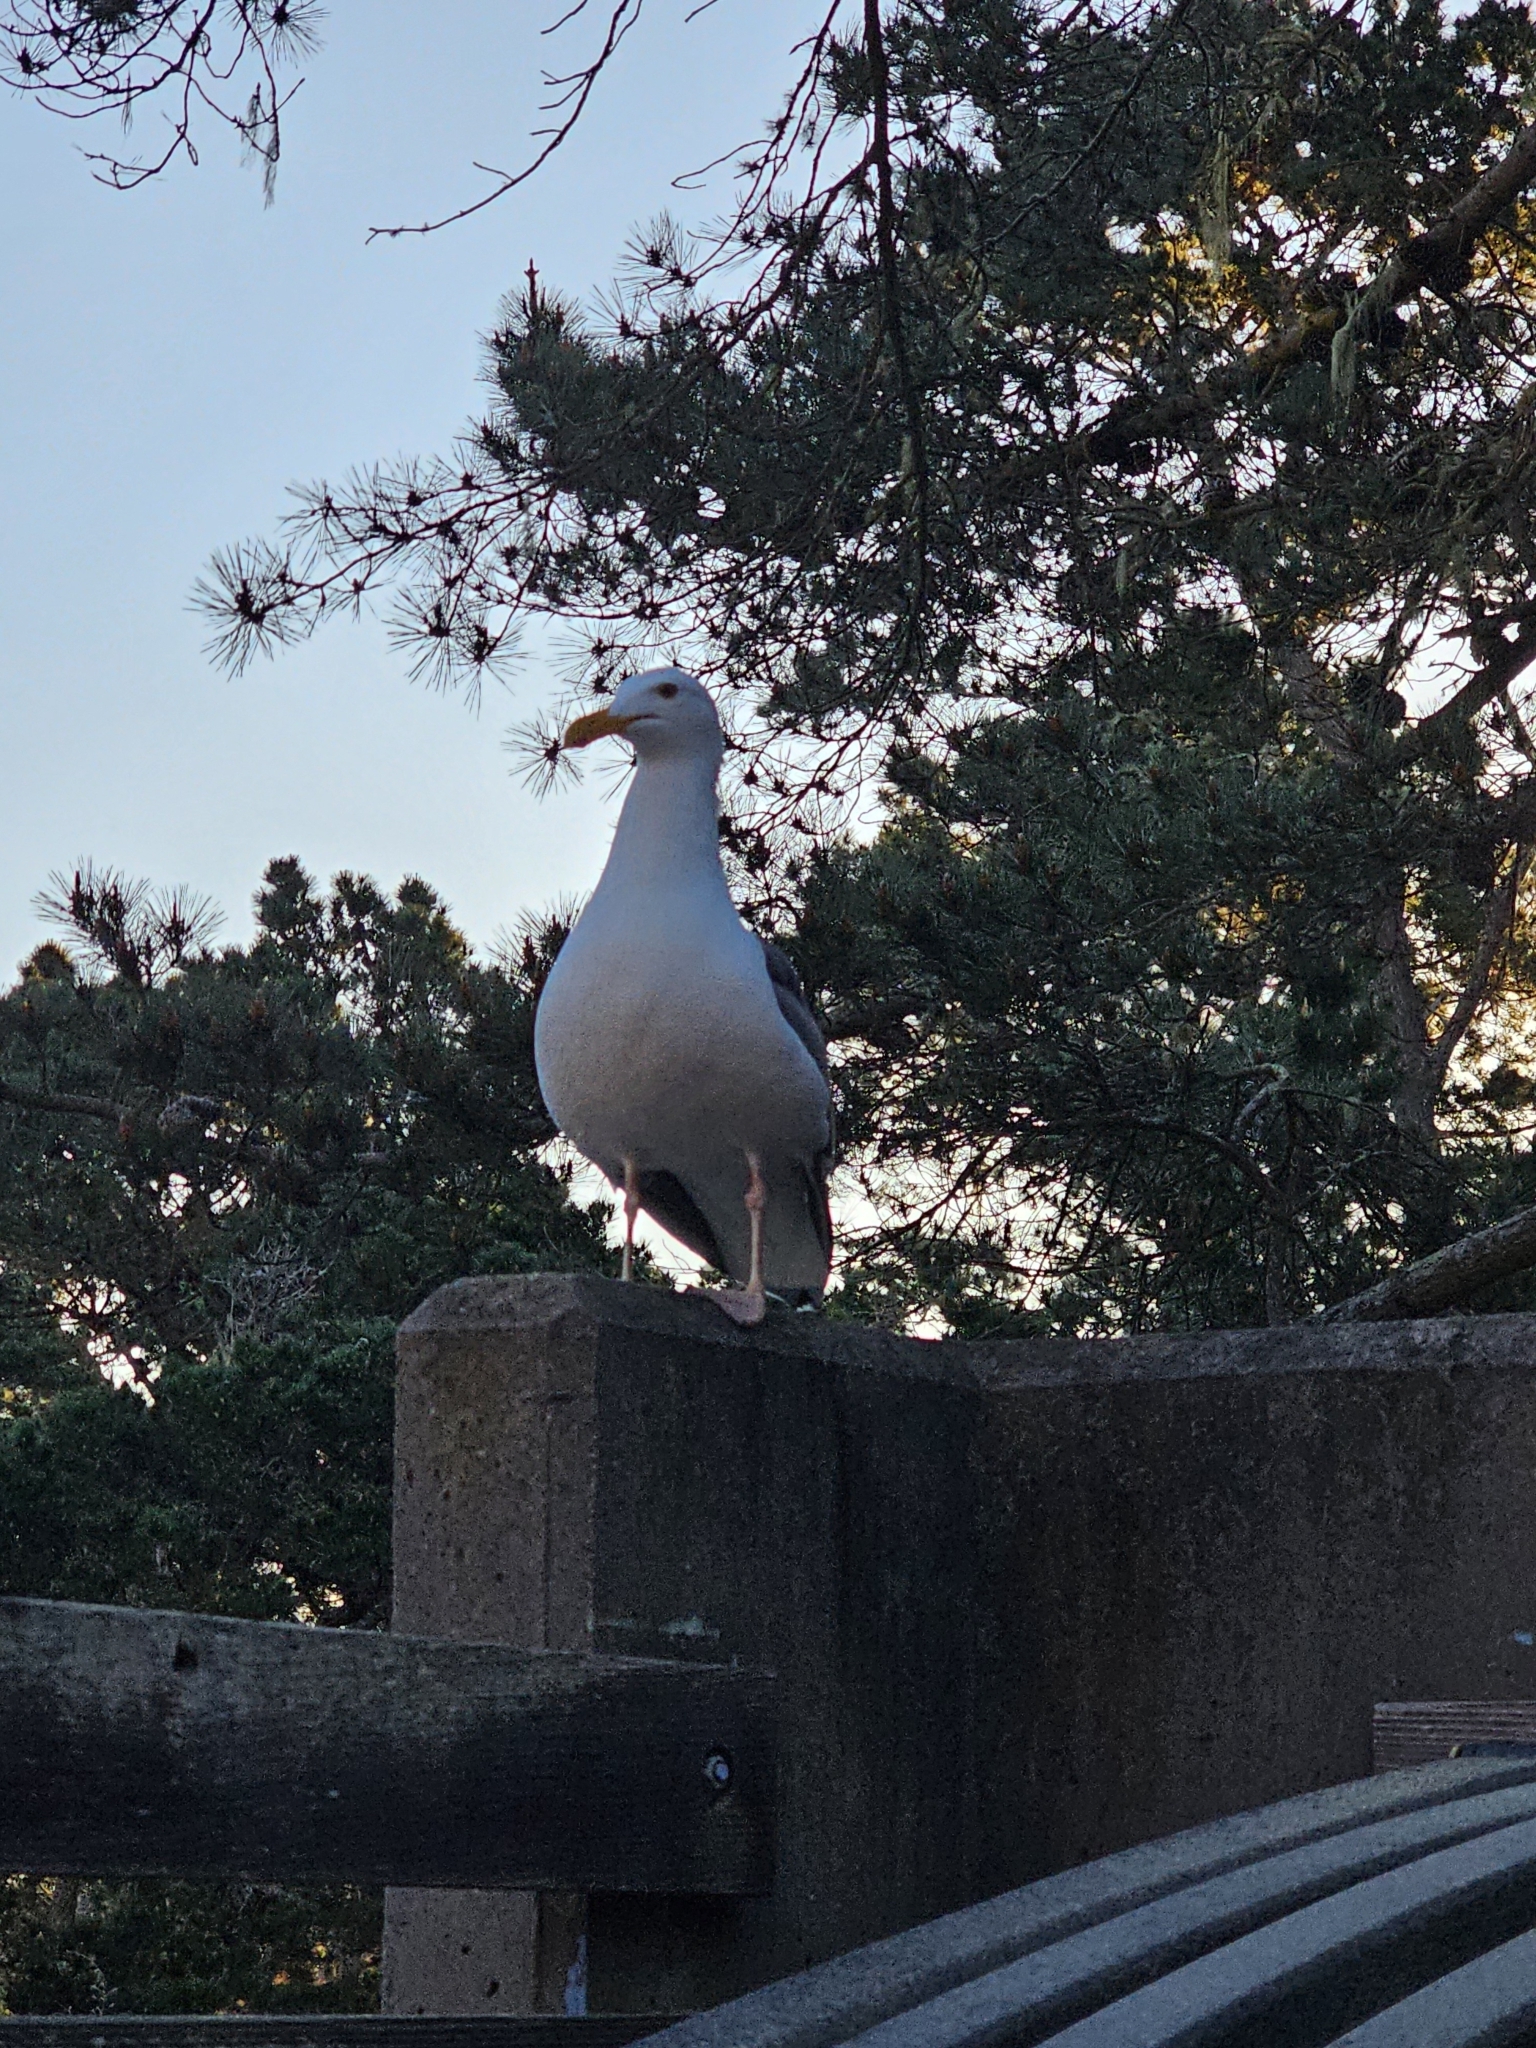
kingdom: Animalia
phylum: Chordata
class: Aves
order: Charadriiformes
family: Laridae
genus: Larus
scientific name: Larus occidentalis
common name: Western gull
